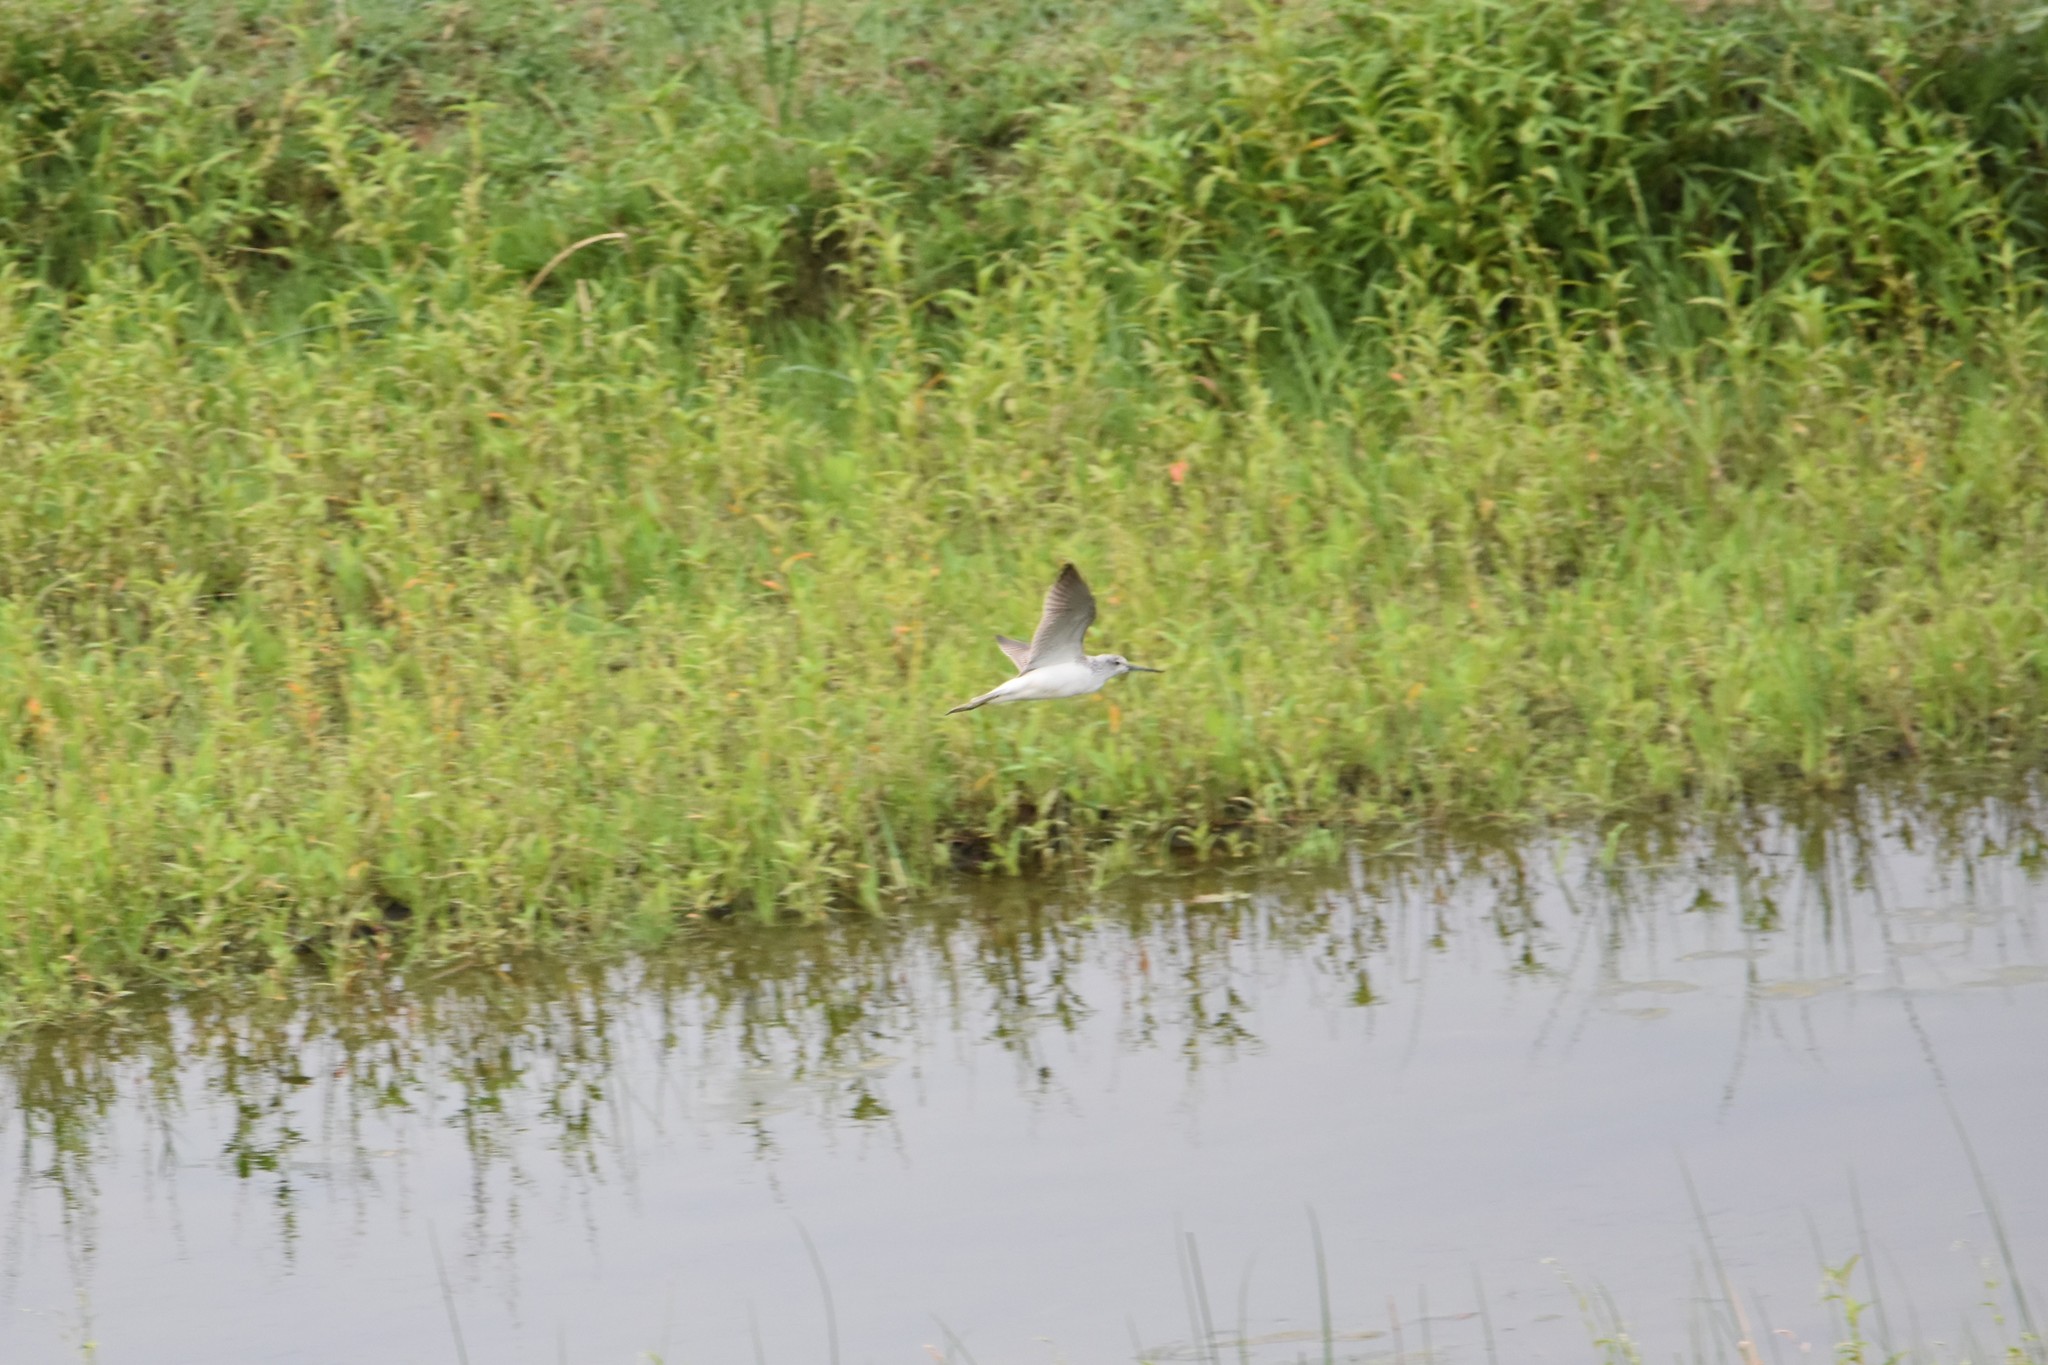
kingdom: Animalia
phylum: Chordata
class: Aves
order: Charadriiformes
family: Scolopacidae
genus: Tringa
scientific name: Tringa nebularia
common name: Common greenshank
